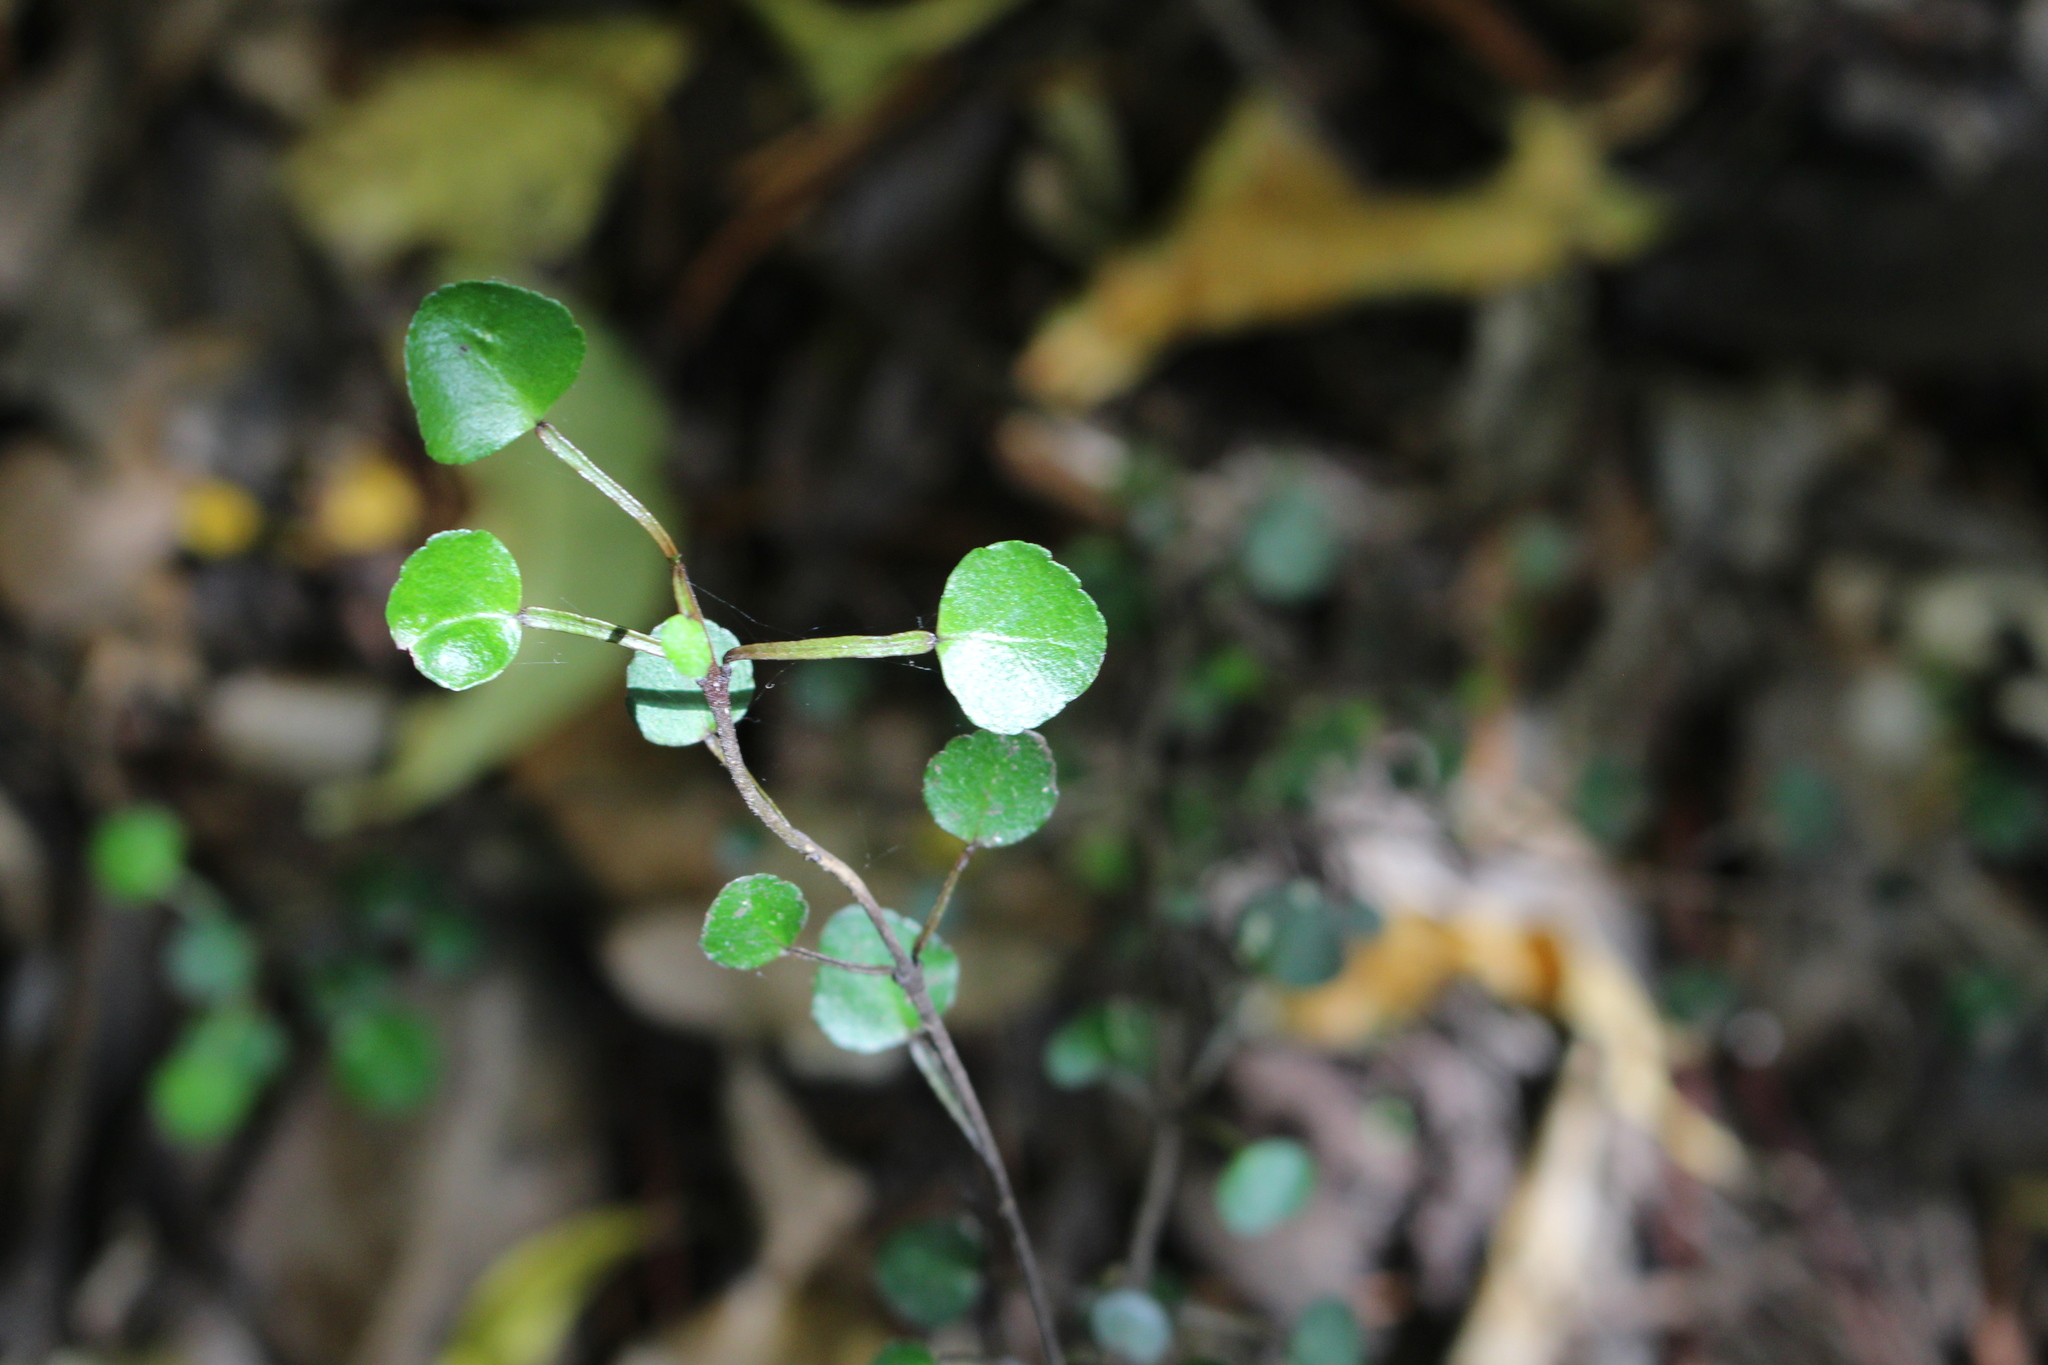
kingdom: Plantae
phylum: Tracheophyta
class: Magnoliopsida
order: Sapindales
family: Rutaceae
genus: Melicope
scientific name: Melicope simplex
